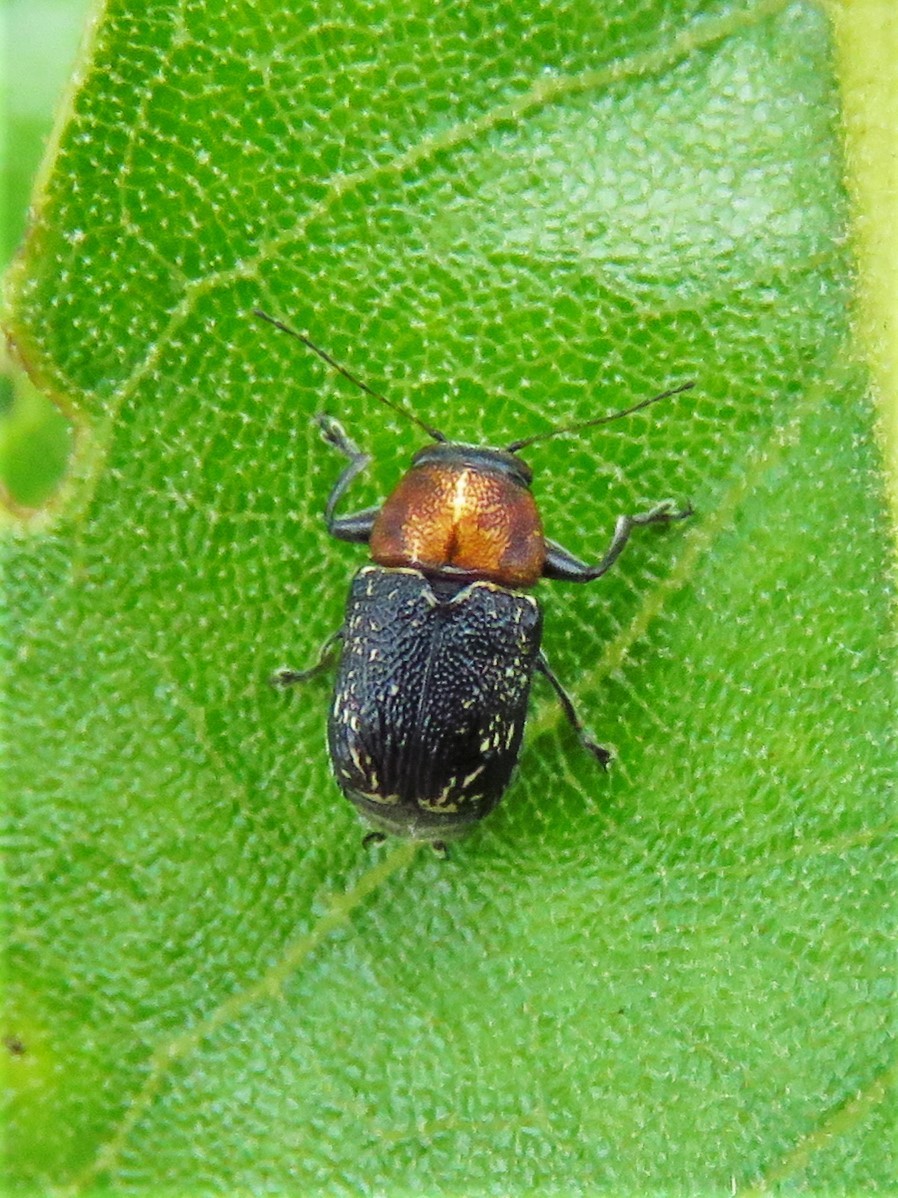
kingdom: Animalia
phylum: Arthropoda
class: Insecta
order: Coleoptera
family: Chrysomelidae
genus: Pachybrachis
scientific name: Pachybrachis luridus
